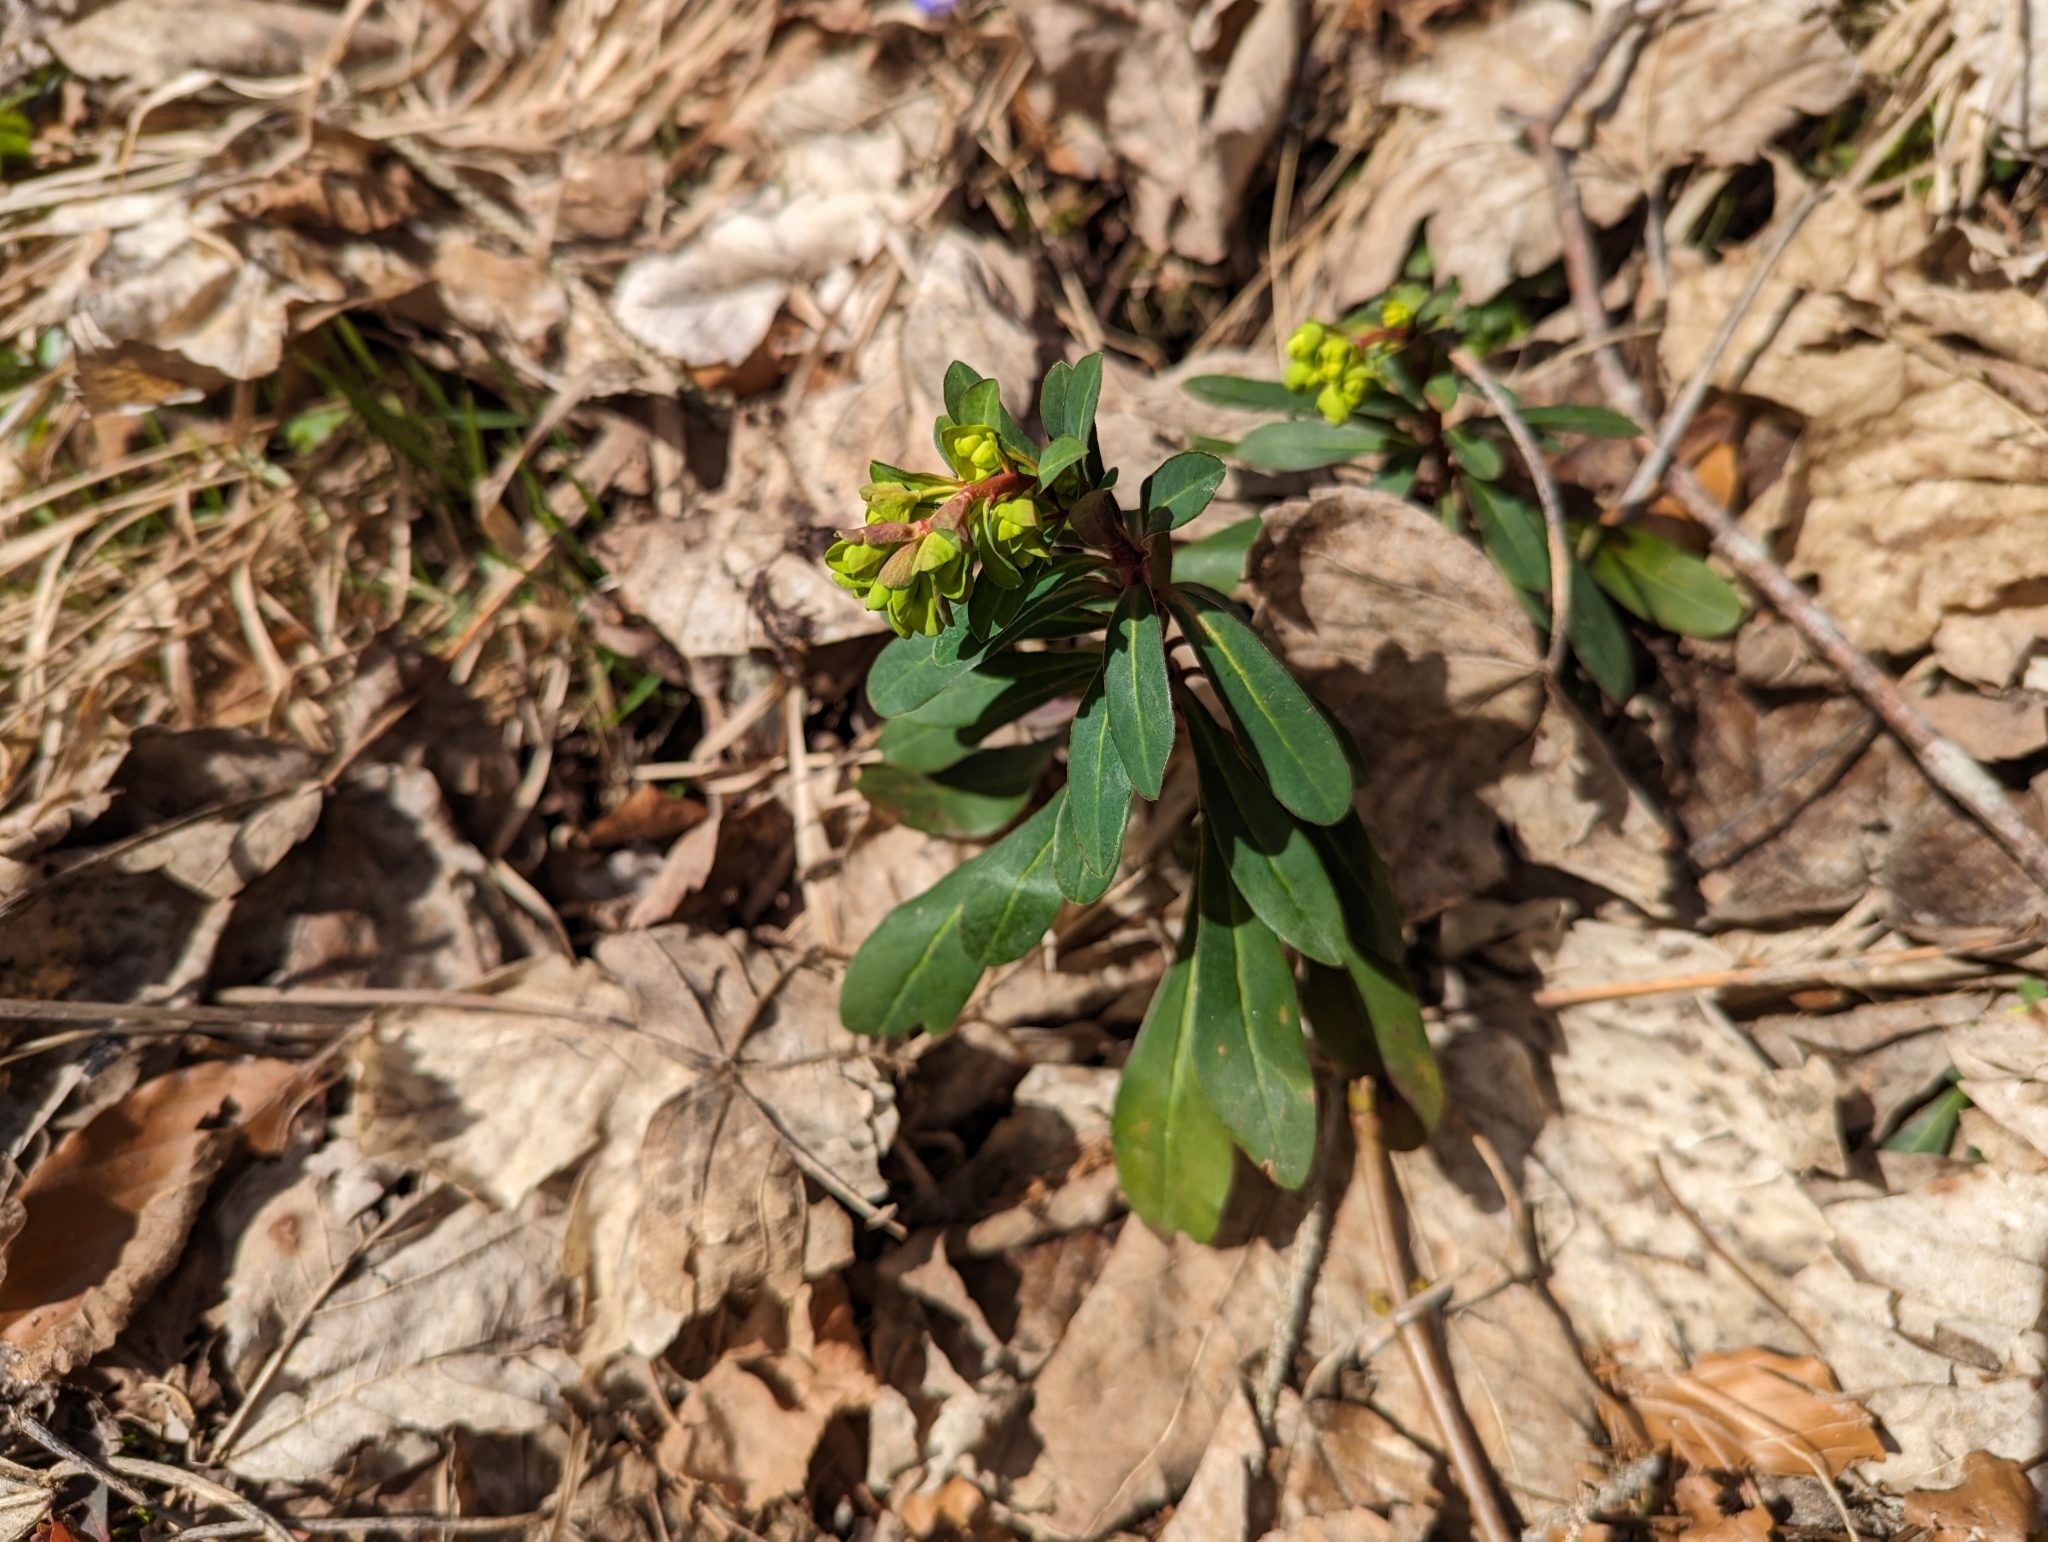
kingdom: Plantae
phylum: Tracheophyta
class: Magnoliopsida
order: Malpighiales
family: Euphorbiaceae
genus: Euphorbia
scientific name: Euphorbia amygdaloides
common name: Wood spurge
